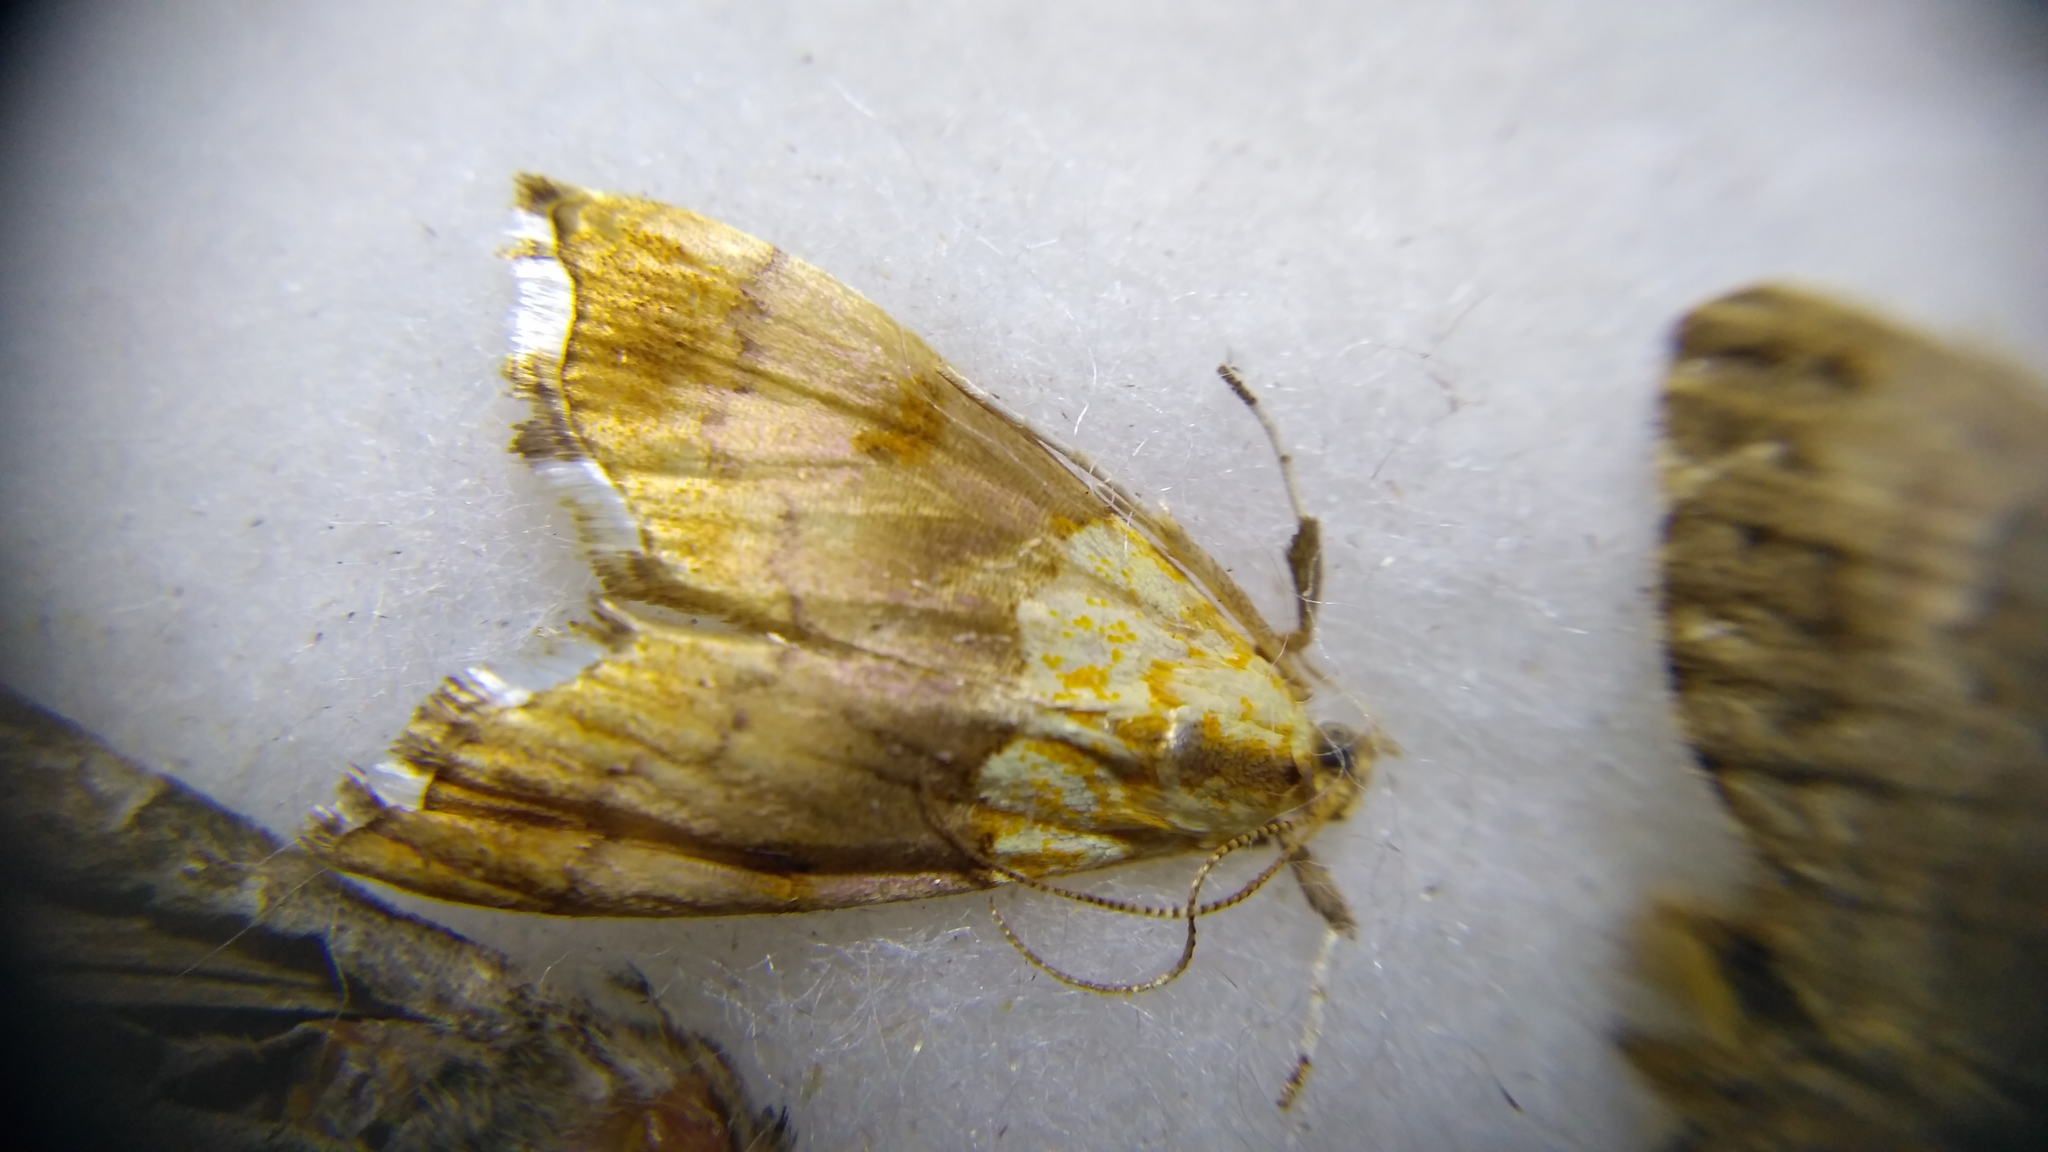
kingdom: Animalia
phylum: Arthropoda
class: Insecta
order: Lepidoptera
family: Crambidae
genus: Agrotera
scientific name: Agrotera nemoralis
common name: Beautiful pearl
